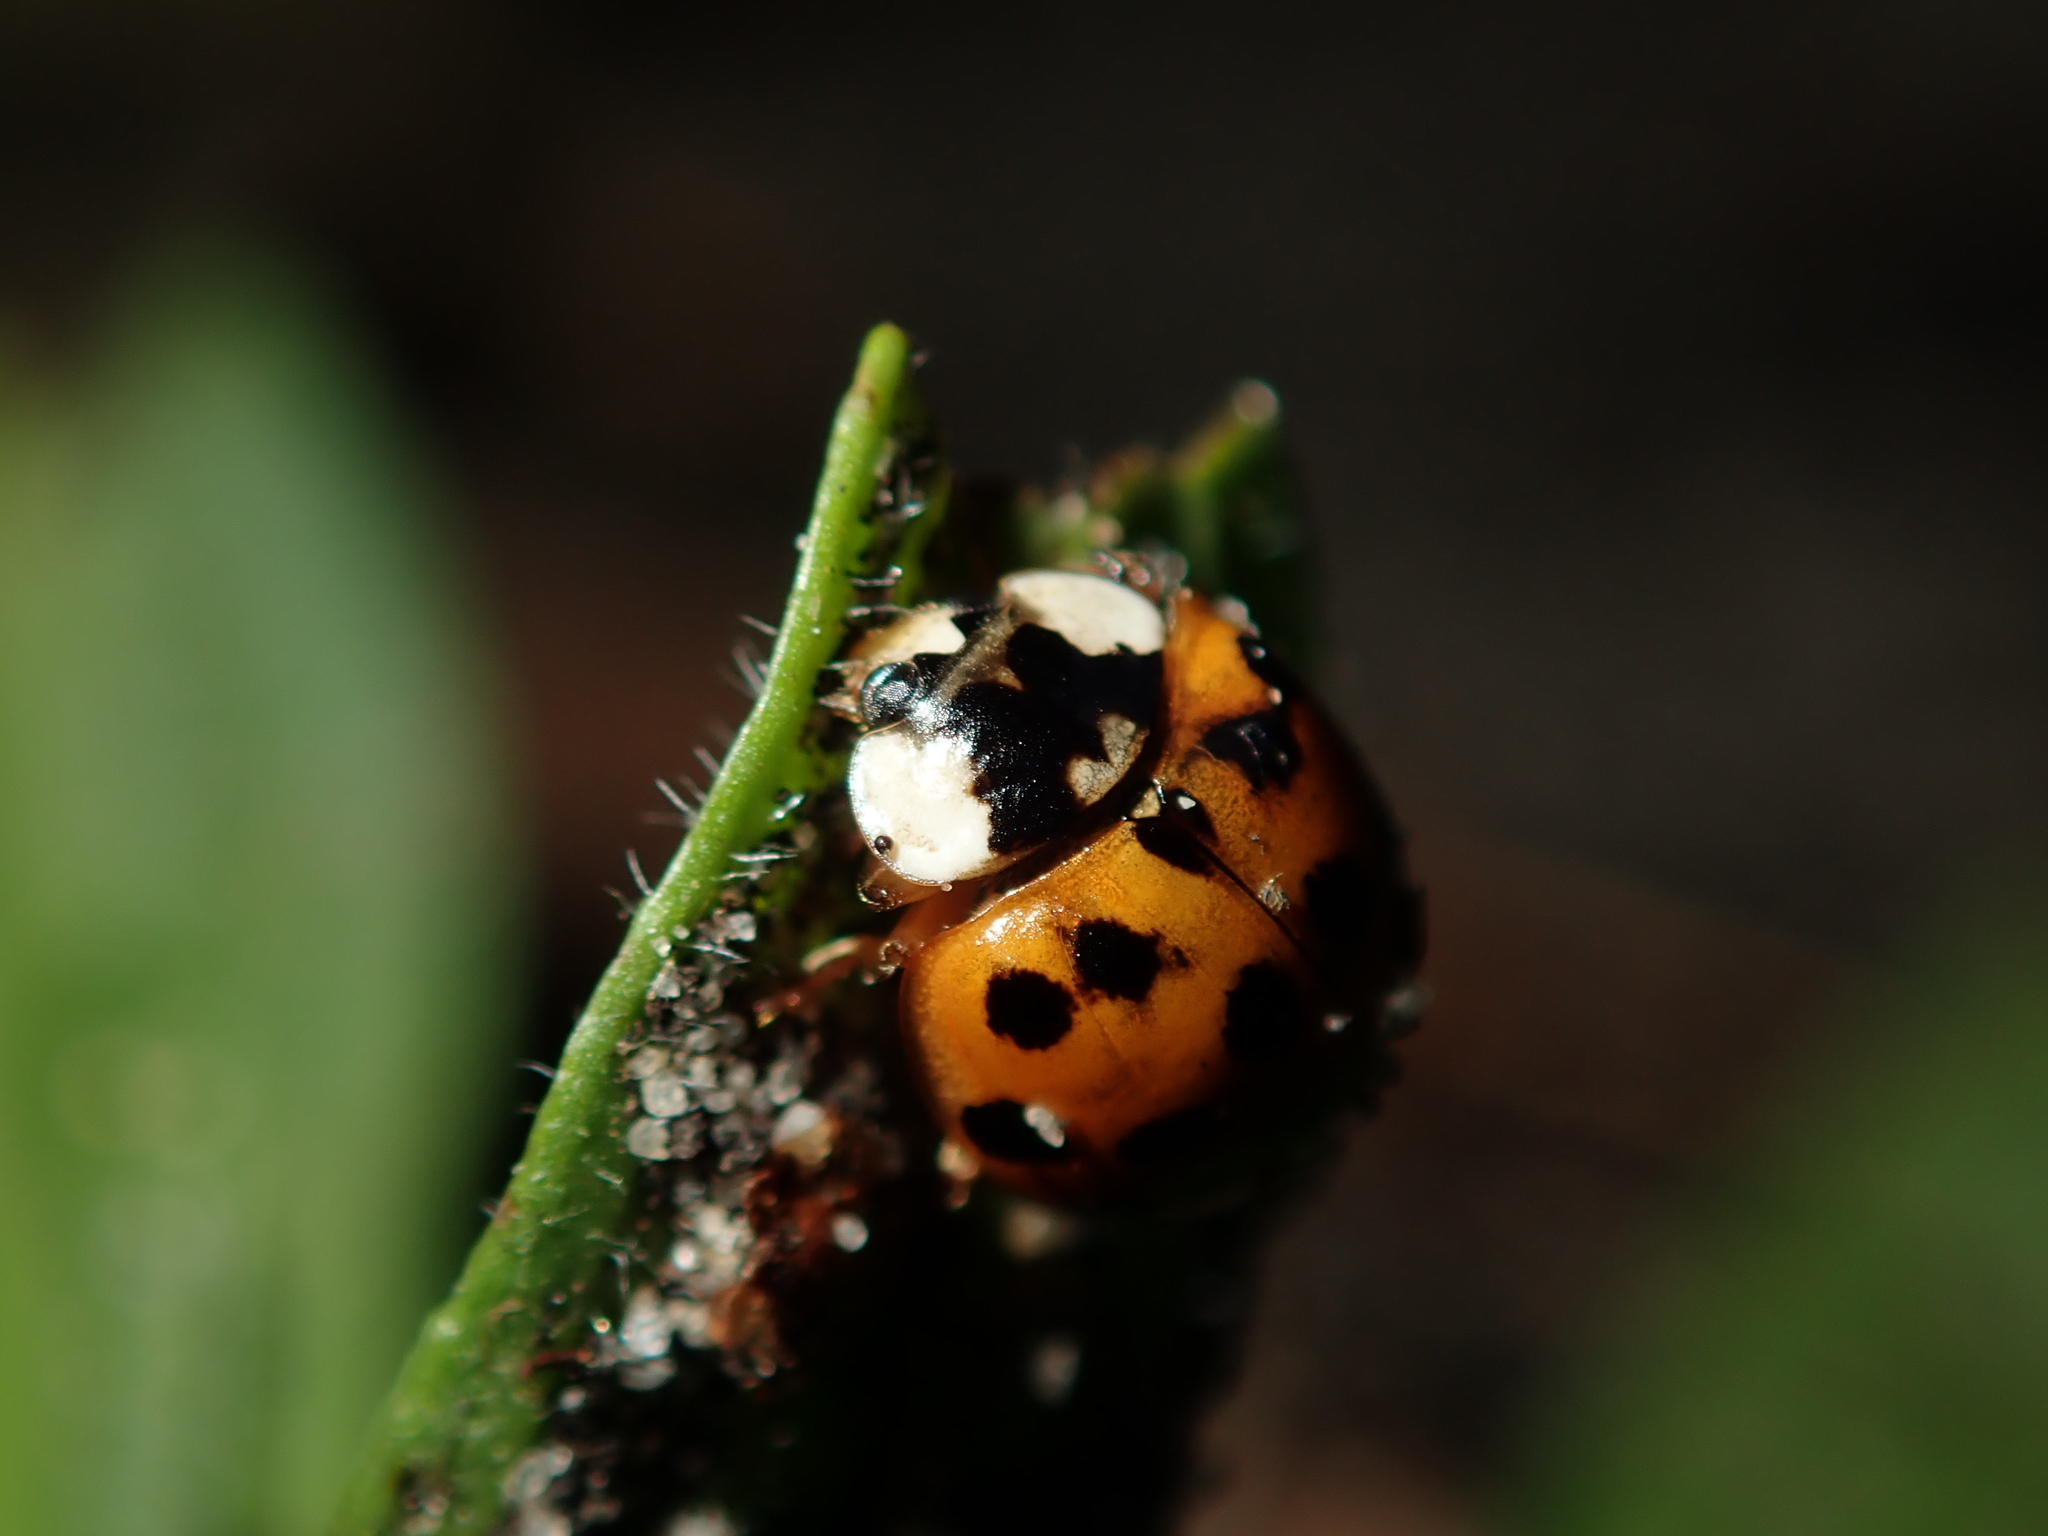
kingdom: Animalia
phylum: Arthropoda
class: Insecta
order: Coleoptera
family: Coccinellidae
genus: Harmonia
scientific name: Harmonia axyridis
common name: Harlequin ladybird
